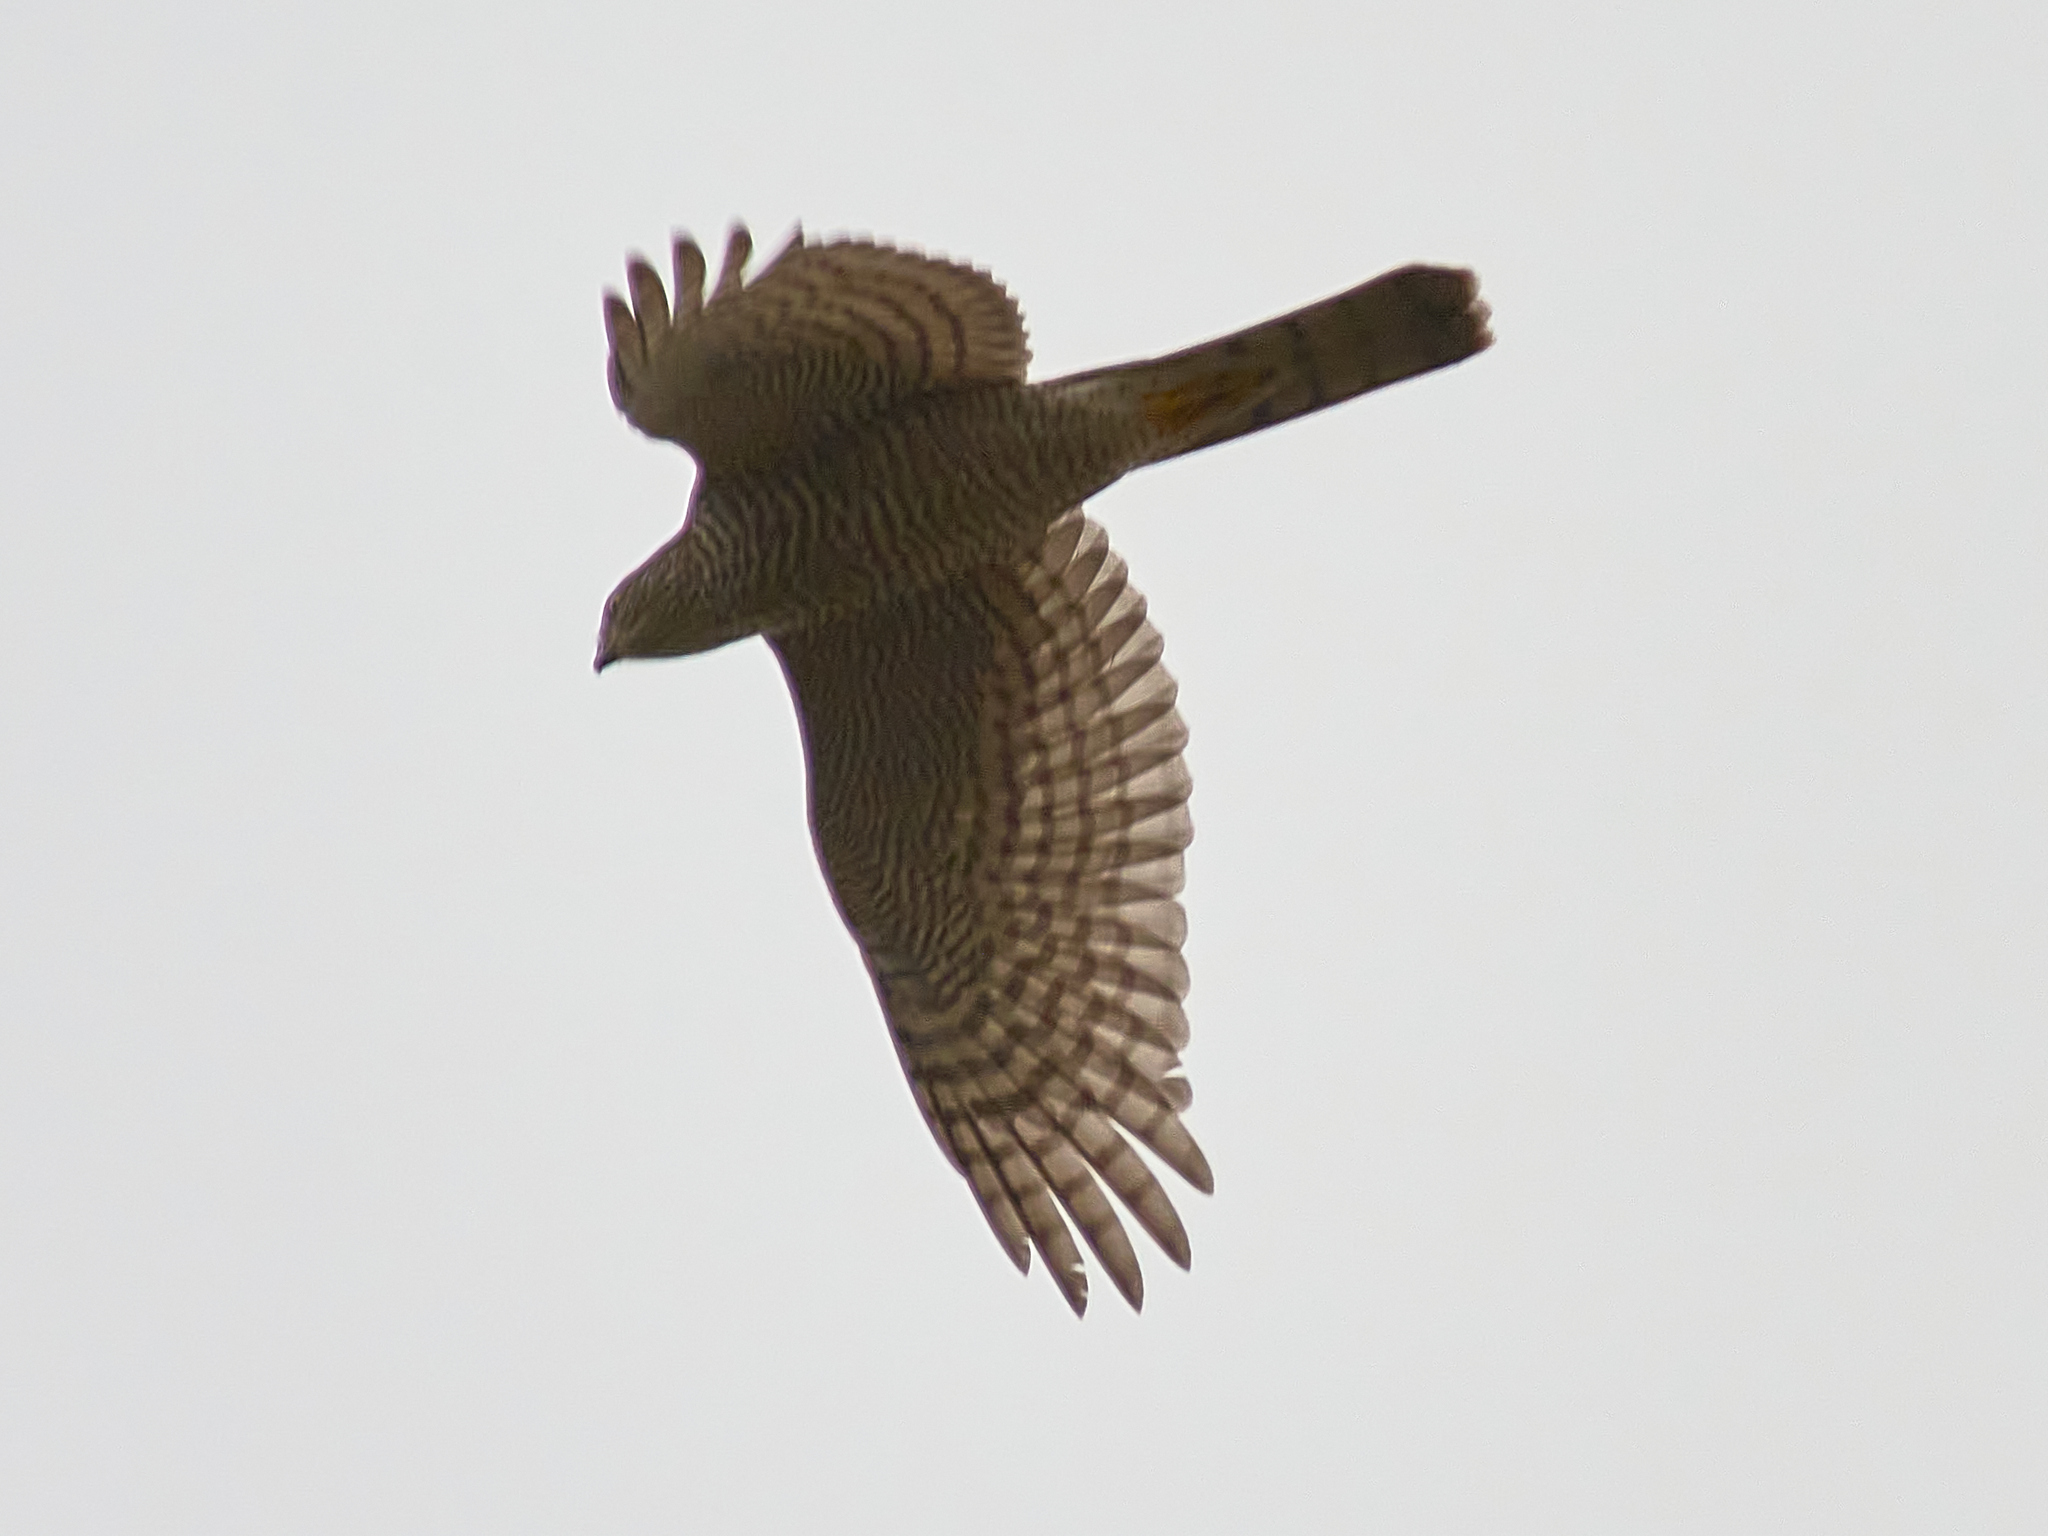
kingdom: Animalia
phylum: Chordata
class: Aves
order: Accipitriformes
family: Accipitridae
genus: Accipiter
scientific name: Accipiter nisus
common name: Eurasian sparrowhawk
